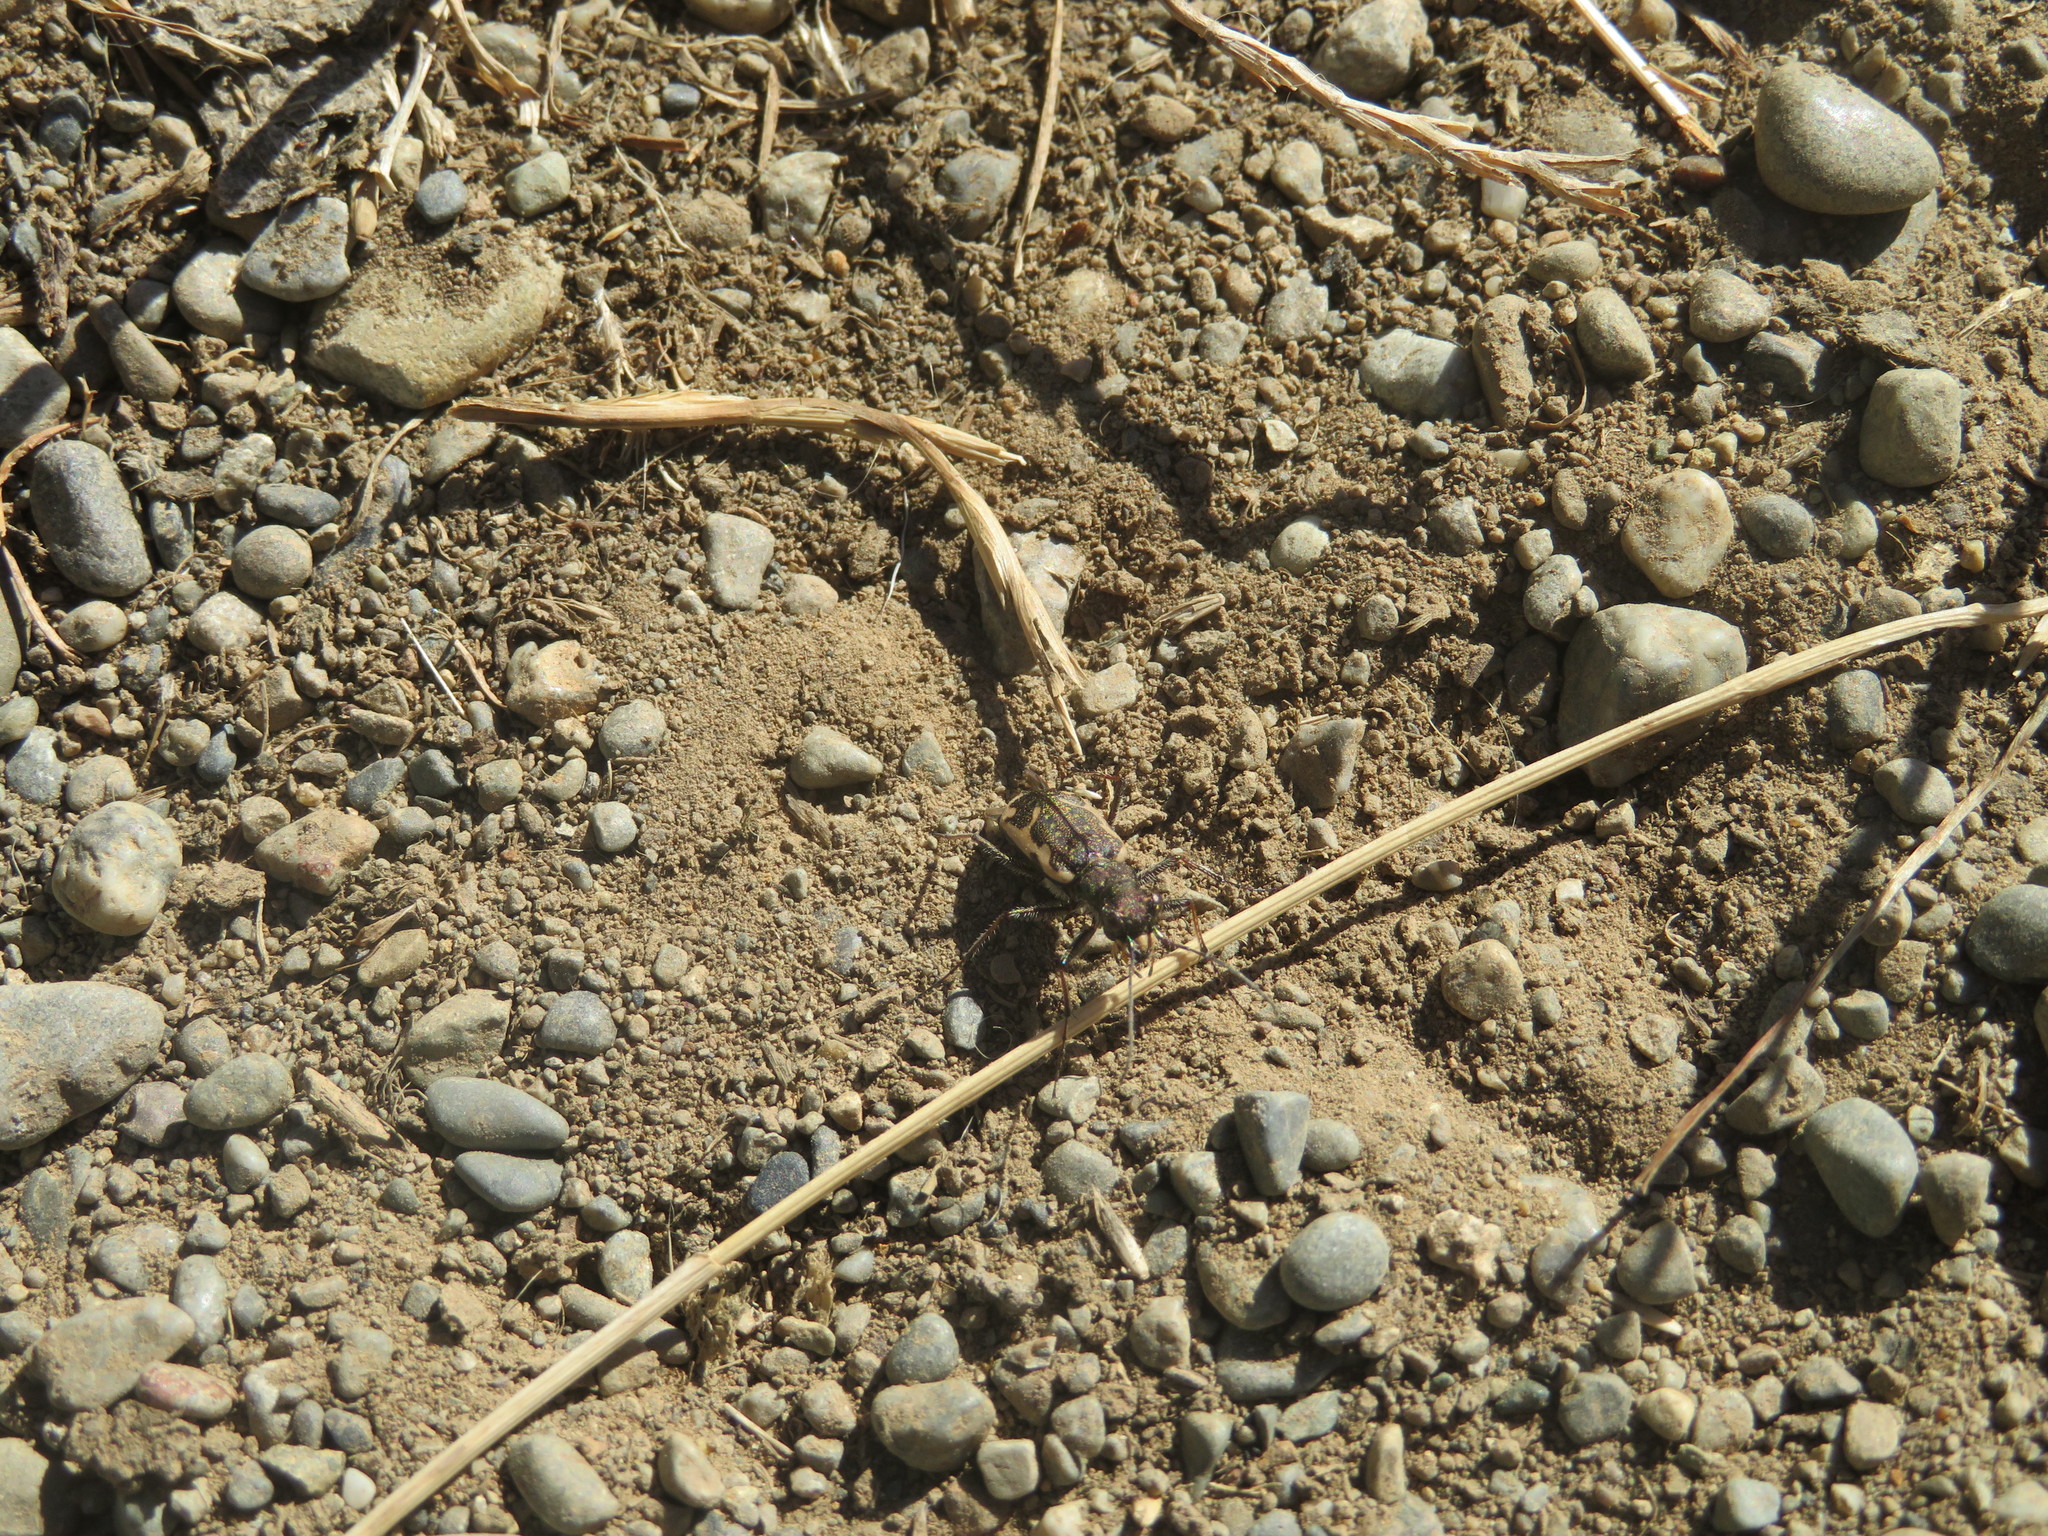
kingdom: Animalia
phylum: Arthropoda
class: Insecta
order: Coleoptera
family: Carabidae
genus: Neocicindela
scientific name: Neocicindela tuberculata
